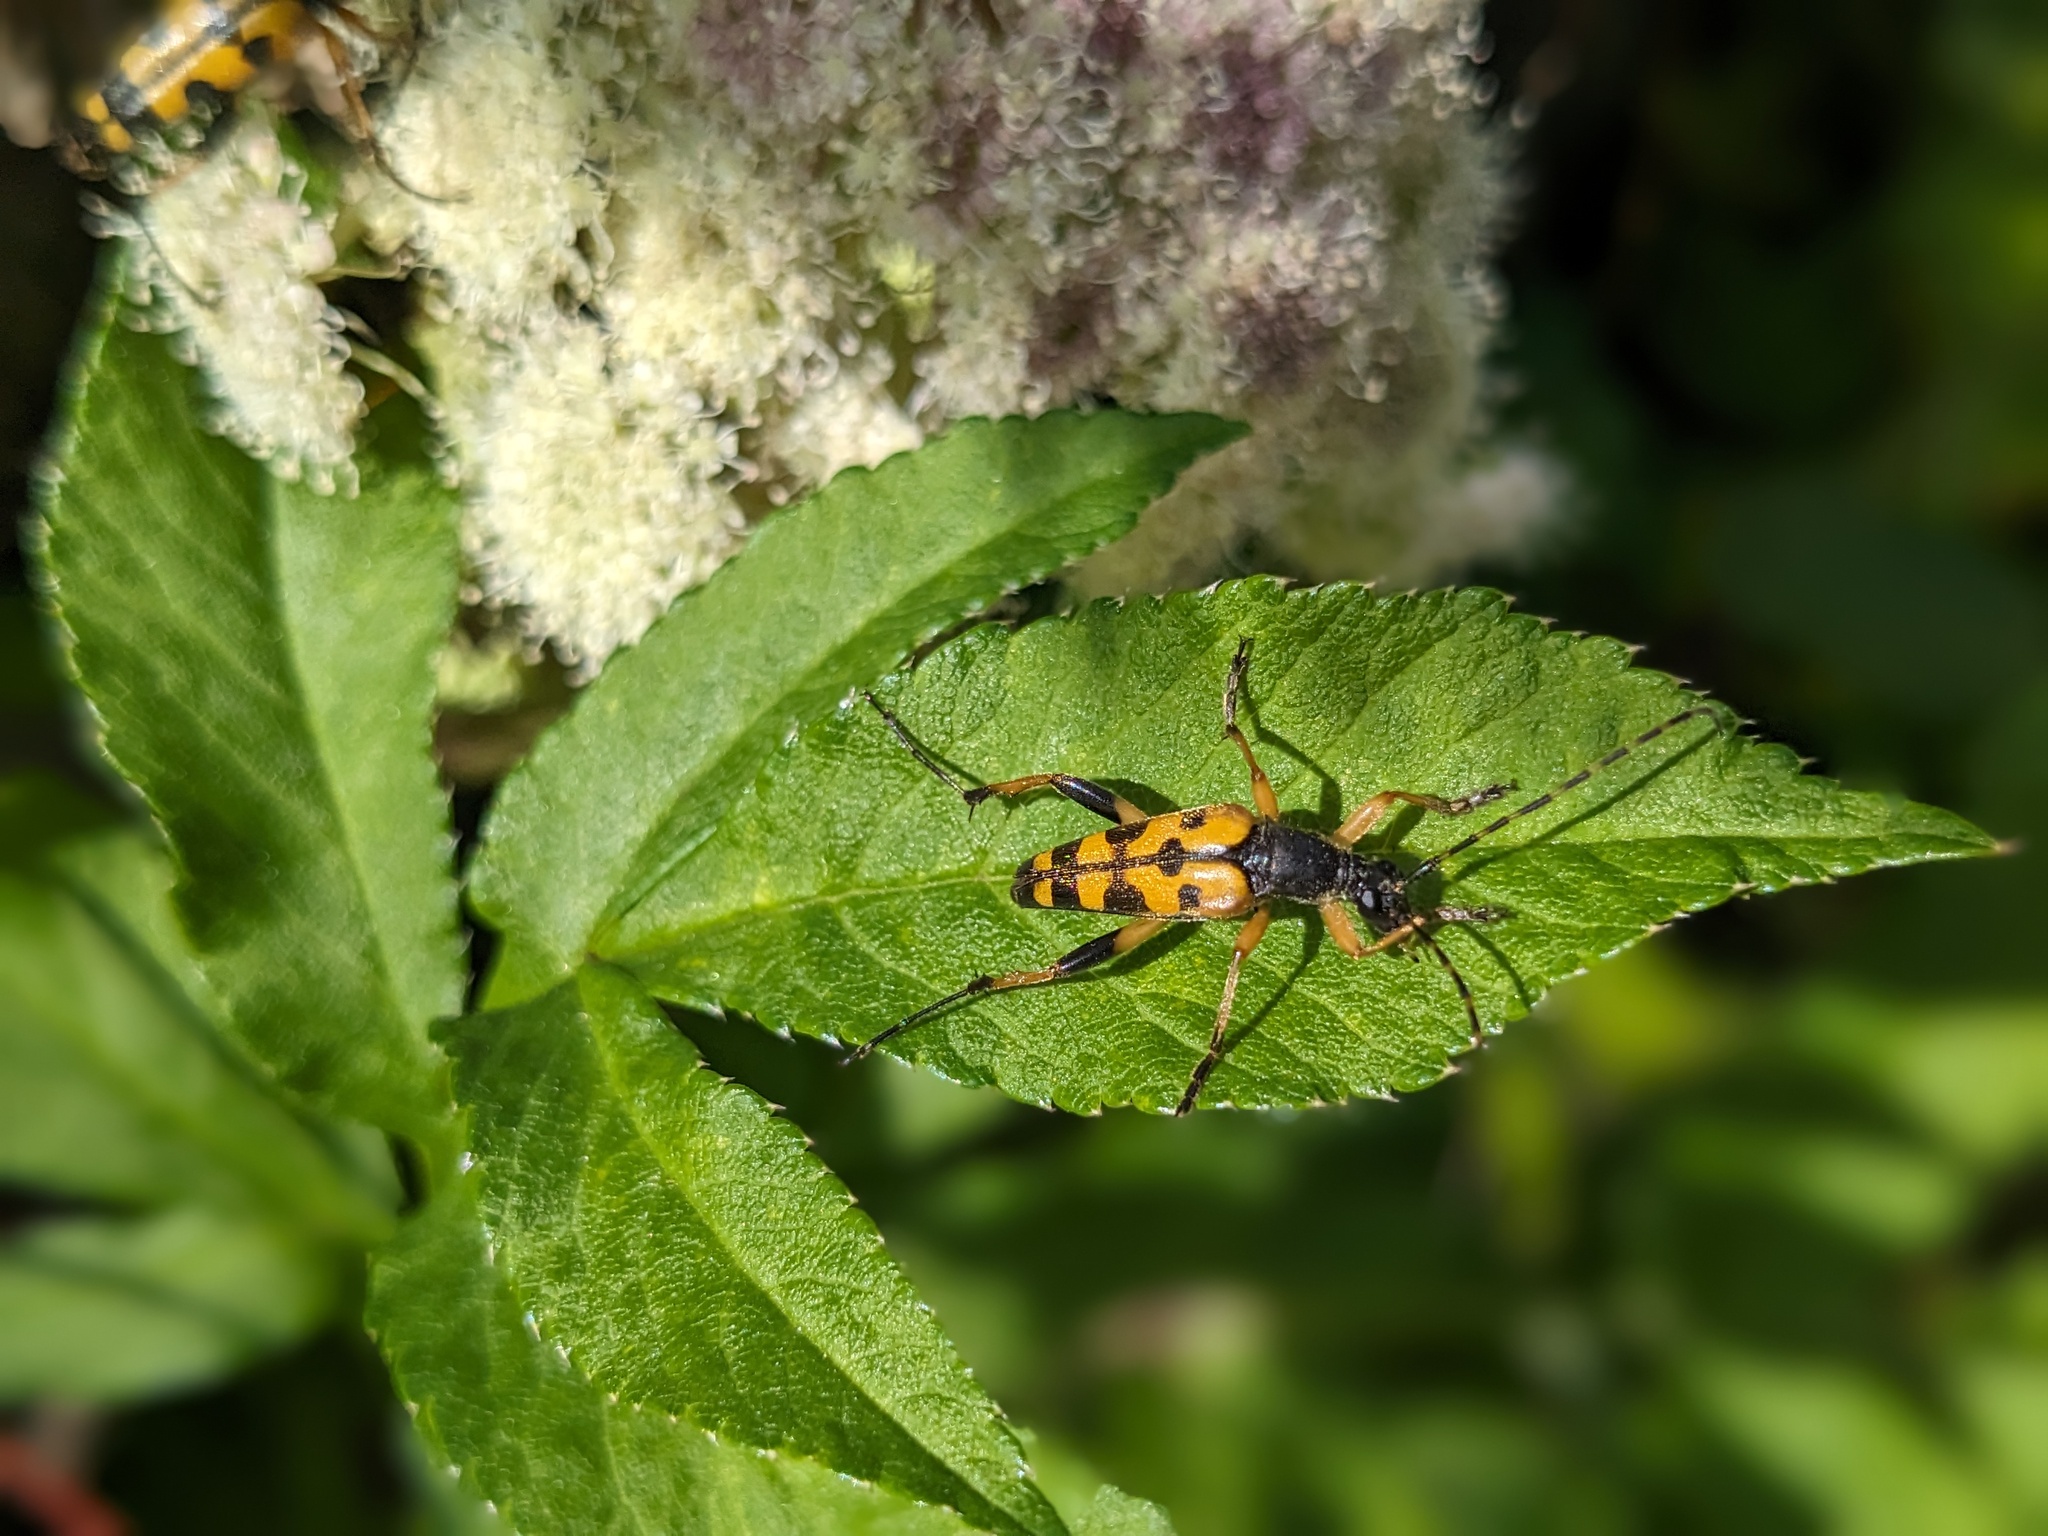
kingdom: Animalia
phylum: Arthropoda
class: Insecta
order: Coleoptera
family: Cerambycidae
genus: Rutpela
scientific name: Rutpela maculata
